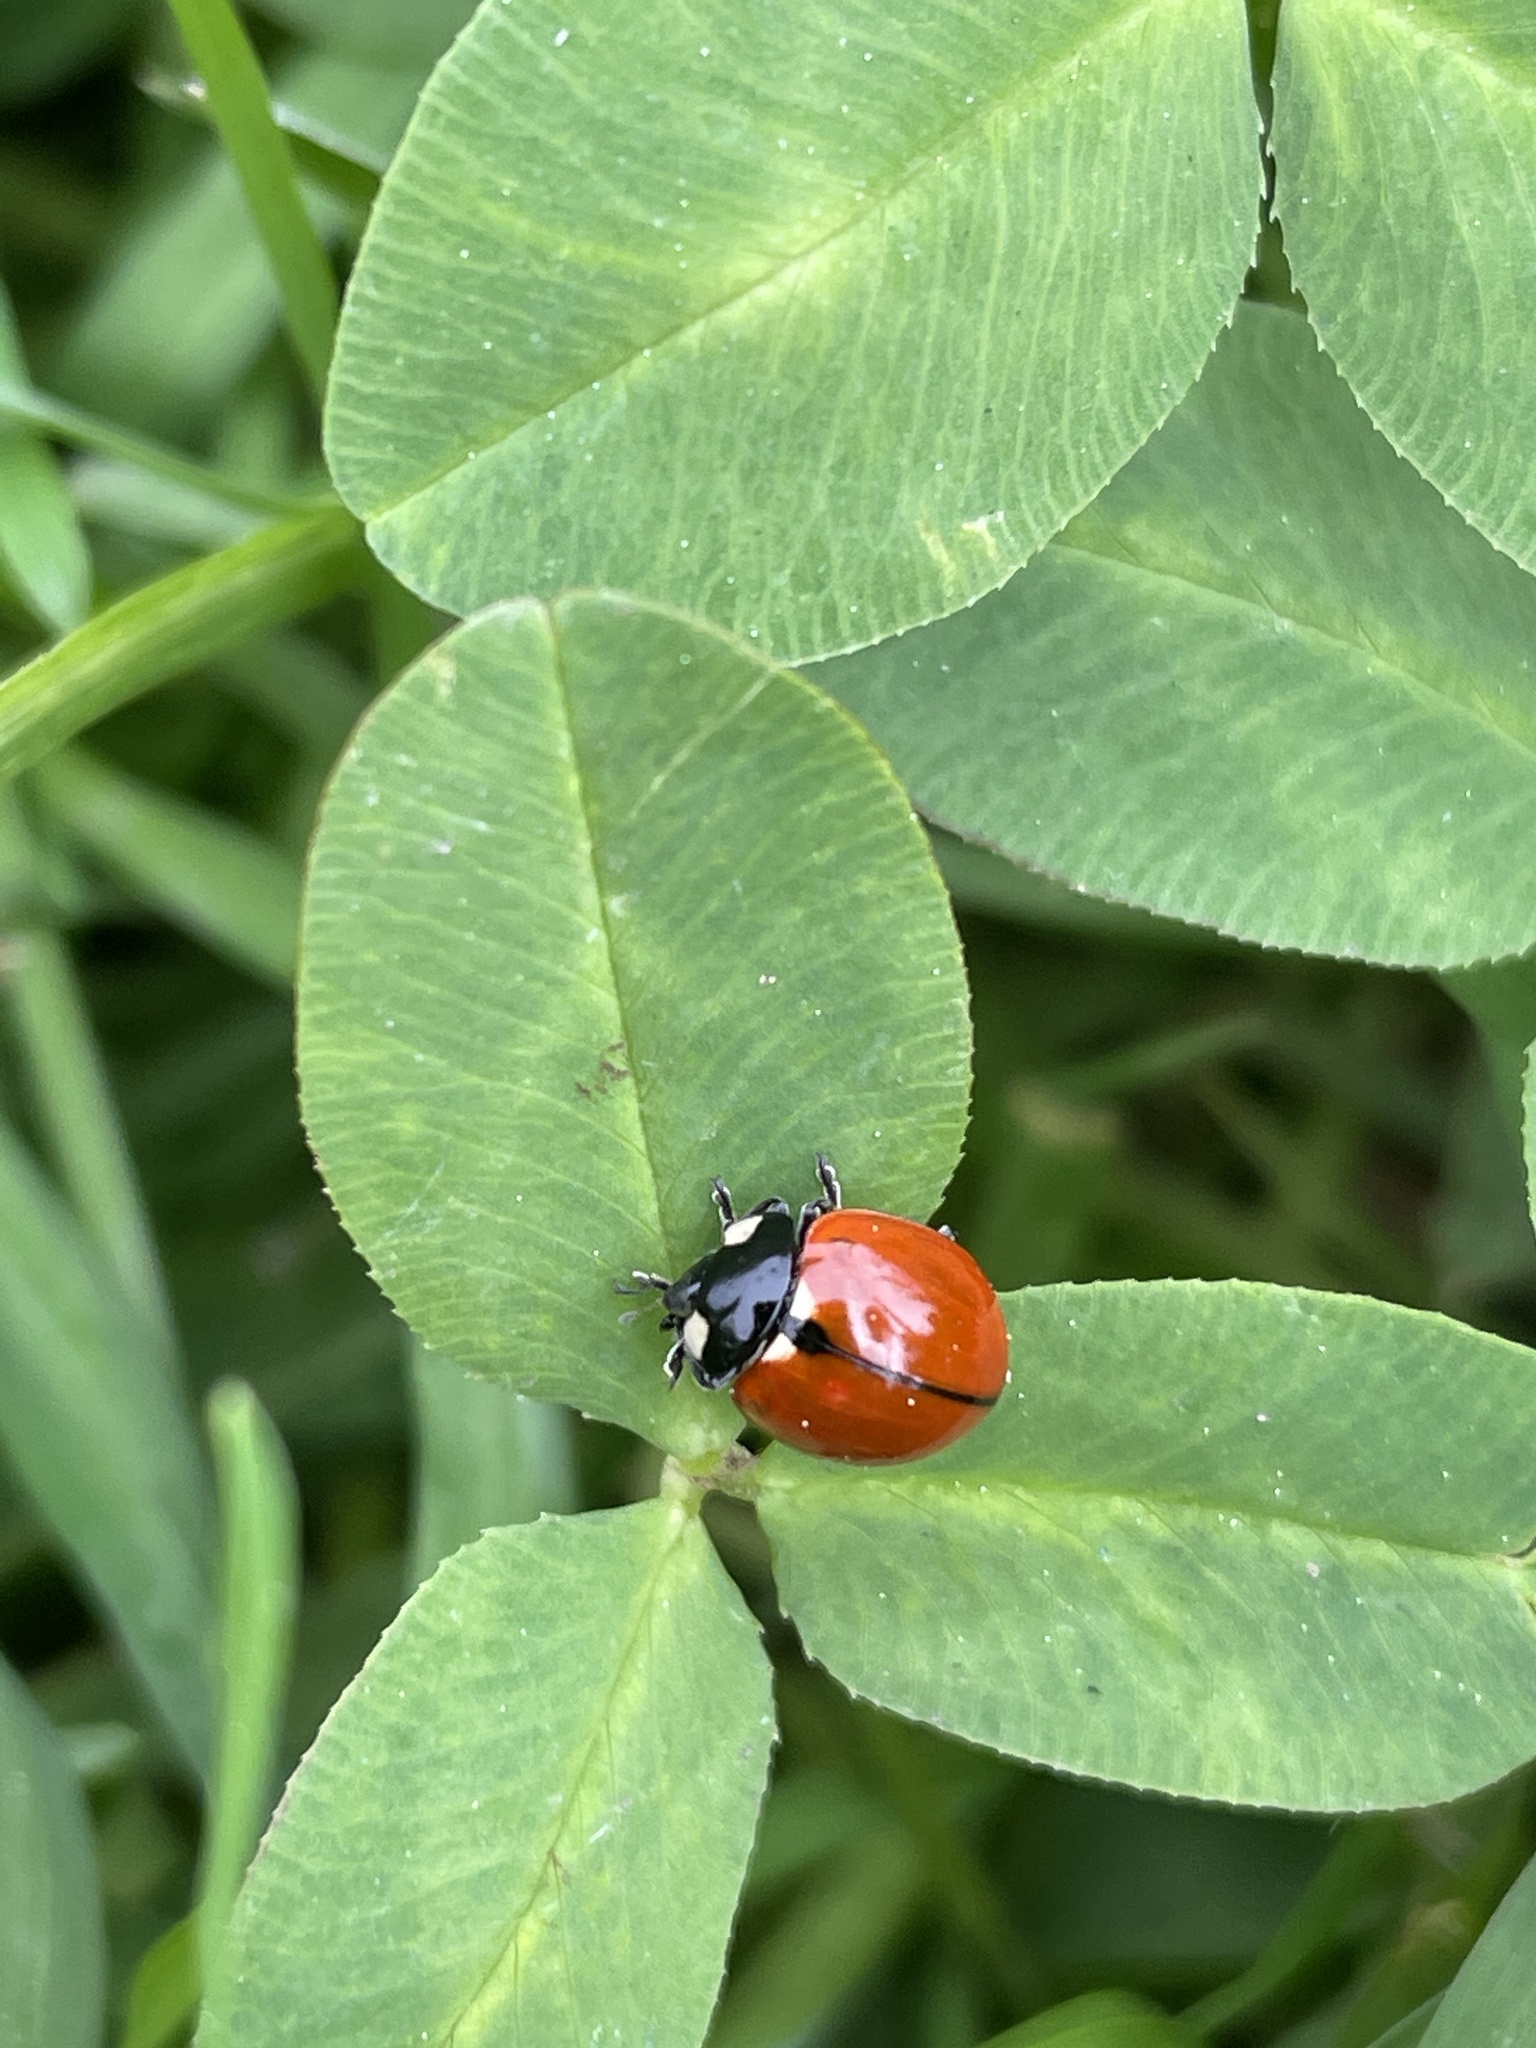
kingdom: Animalia
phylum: Arthropoda
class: Insecta
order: Coleoptera
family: Coccinellidae
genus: Coccinella
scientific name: Coccinella californica
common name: Lady beetle
